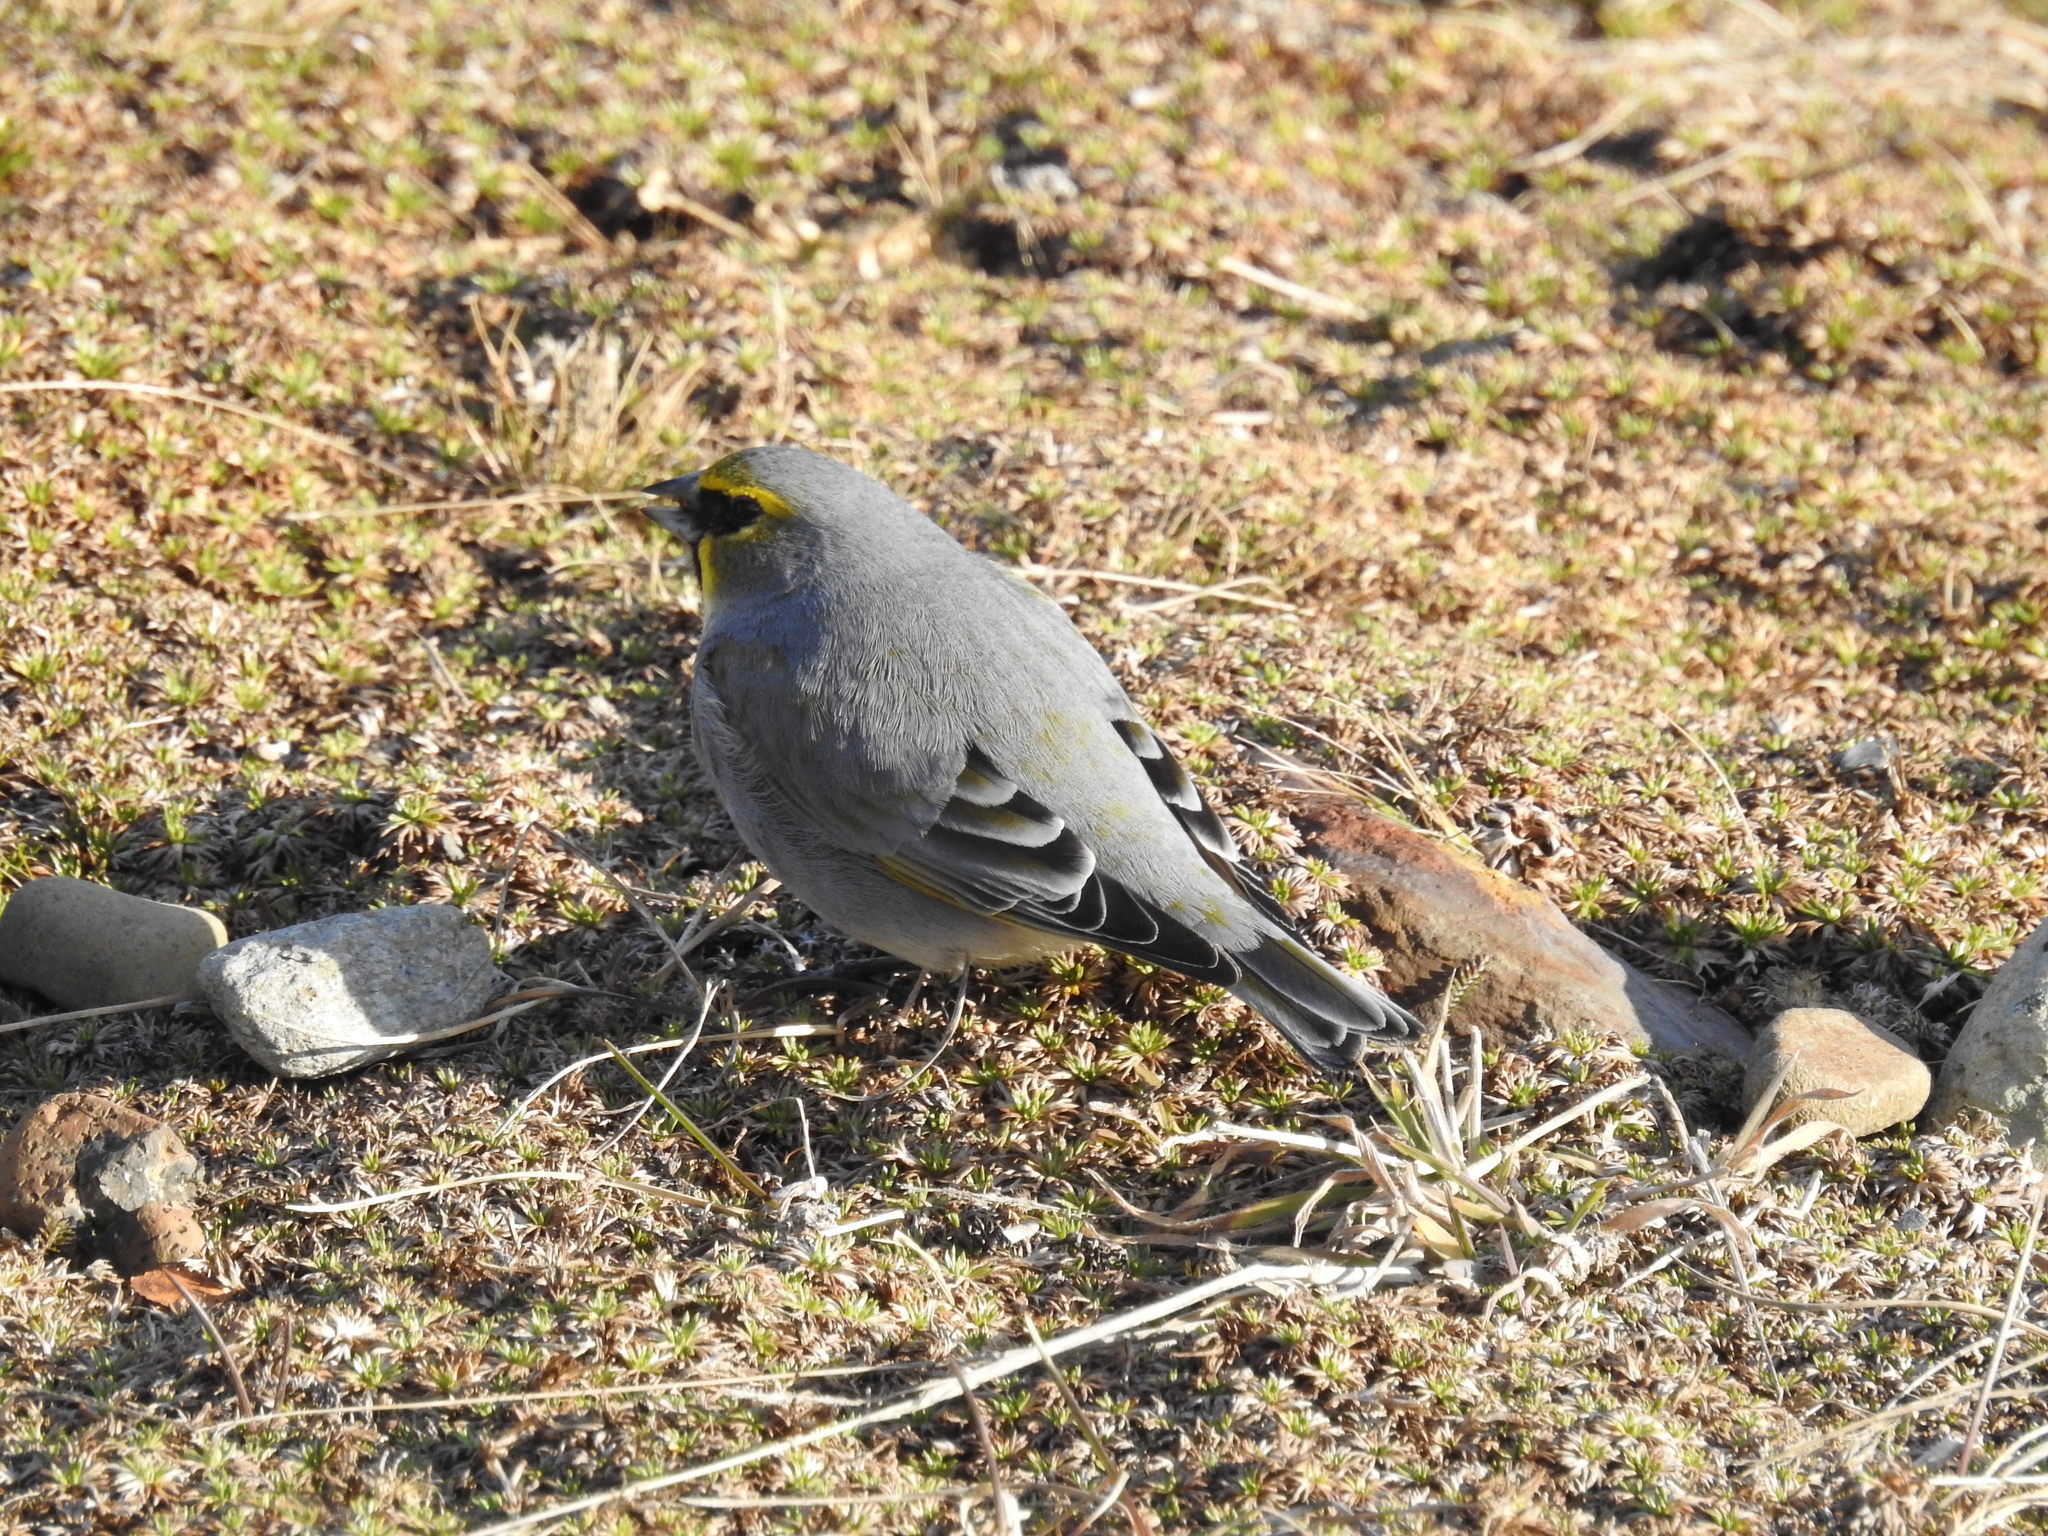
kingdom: Animalia
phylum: Chordata
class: Aves
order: Passeriformes
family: Thraupidae
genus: Melanodera
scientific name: Melanodera xanthogramma
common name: Yellow-bridled finch
